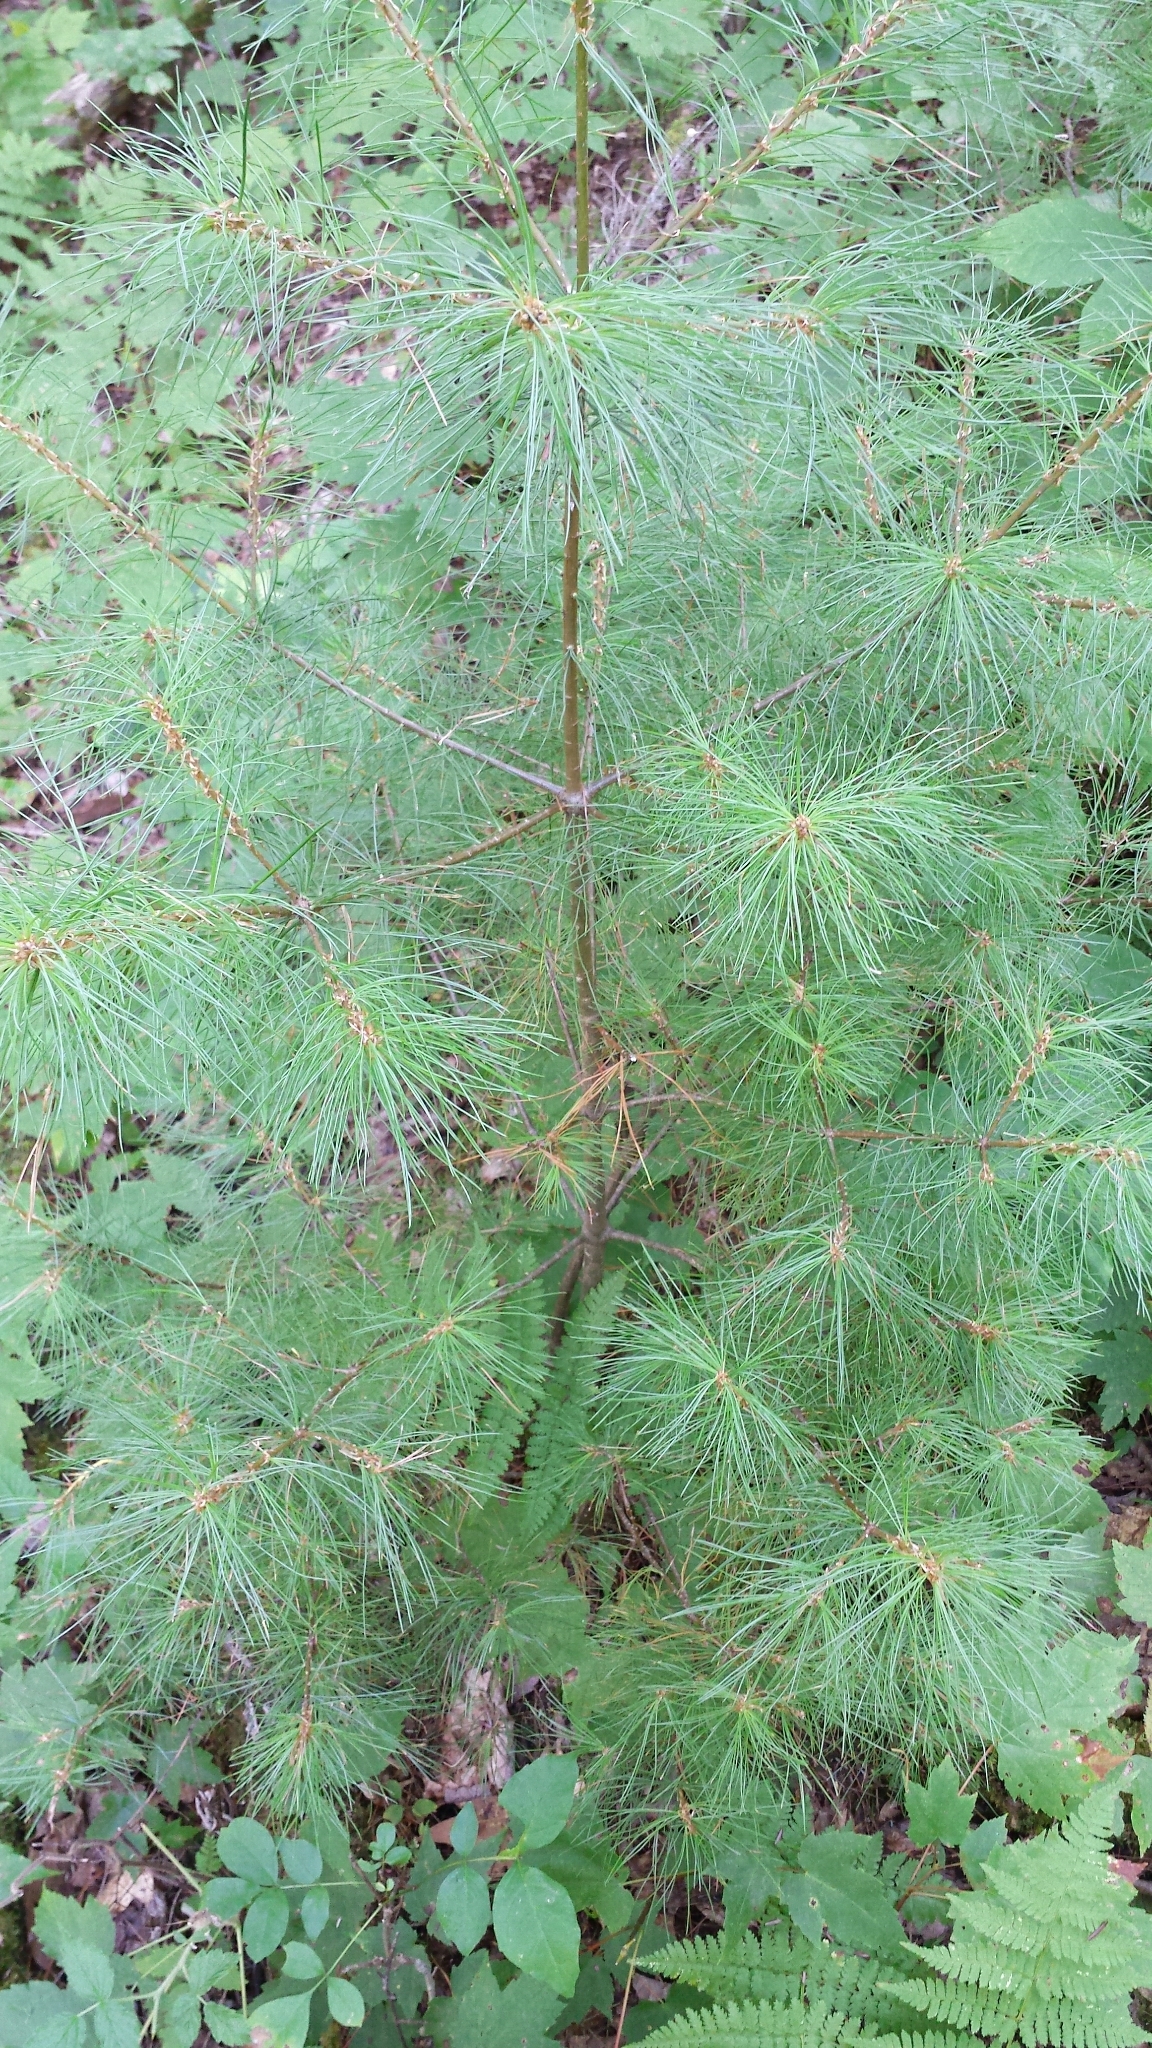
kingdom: Plantae
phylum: Tracheophyta
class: Pinopsida
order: Pinales
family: Pinaceae
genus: Pinus
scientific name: Pinus strobus
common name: Weymouth pine
